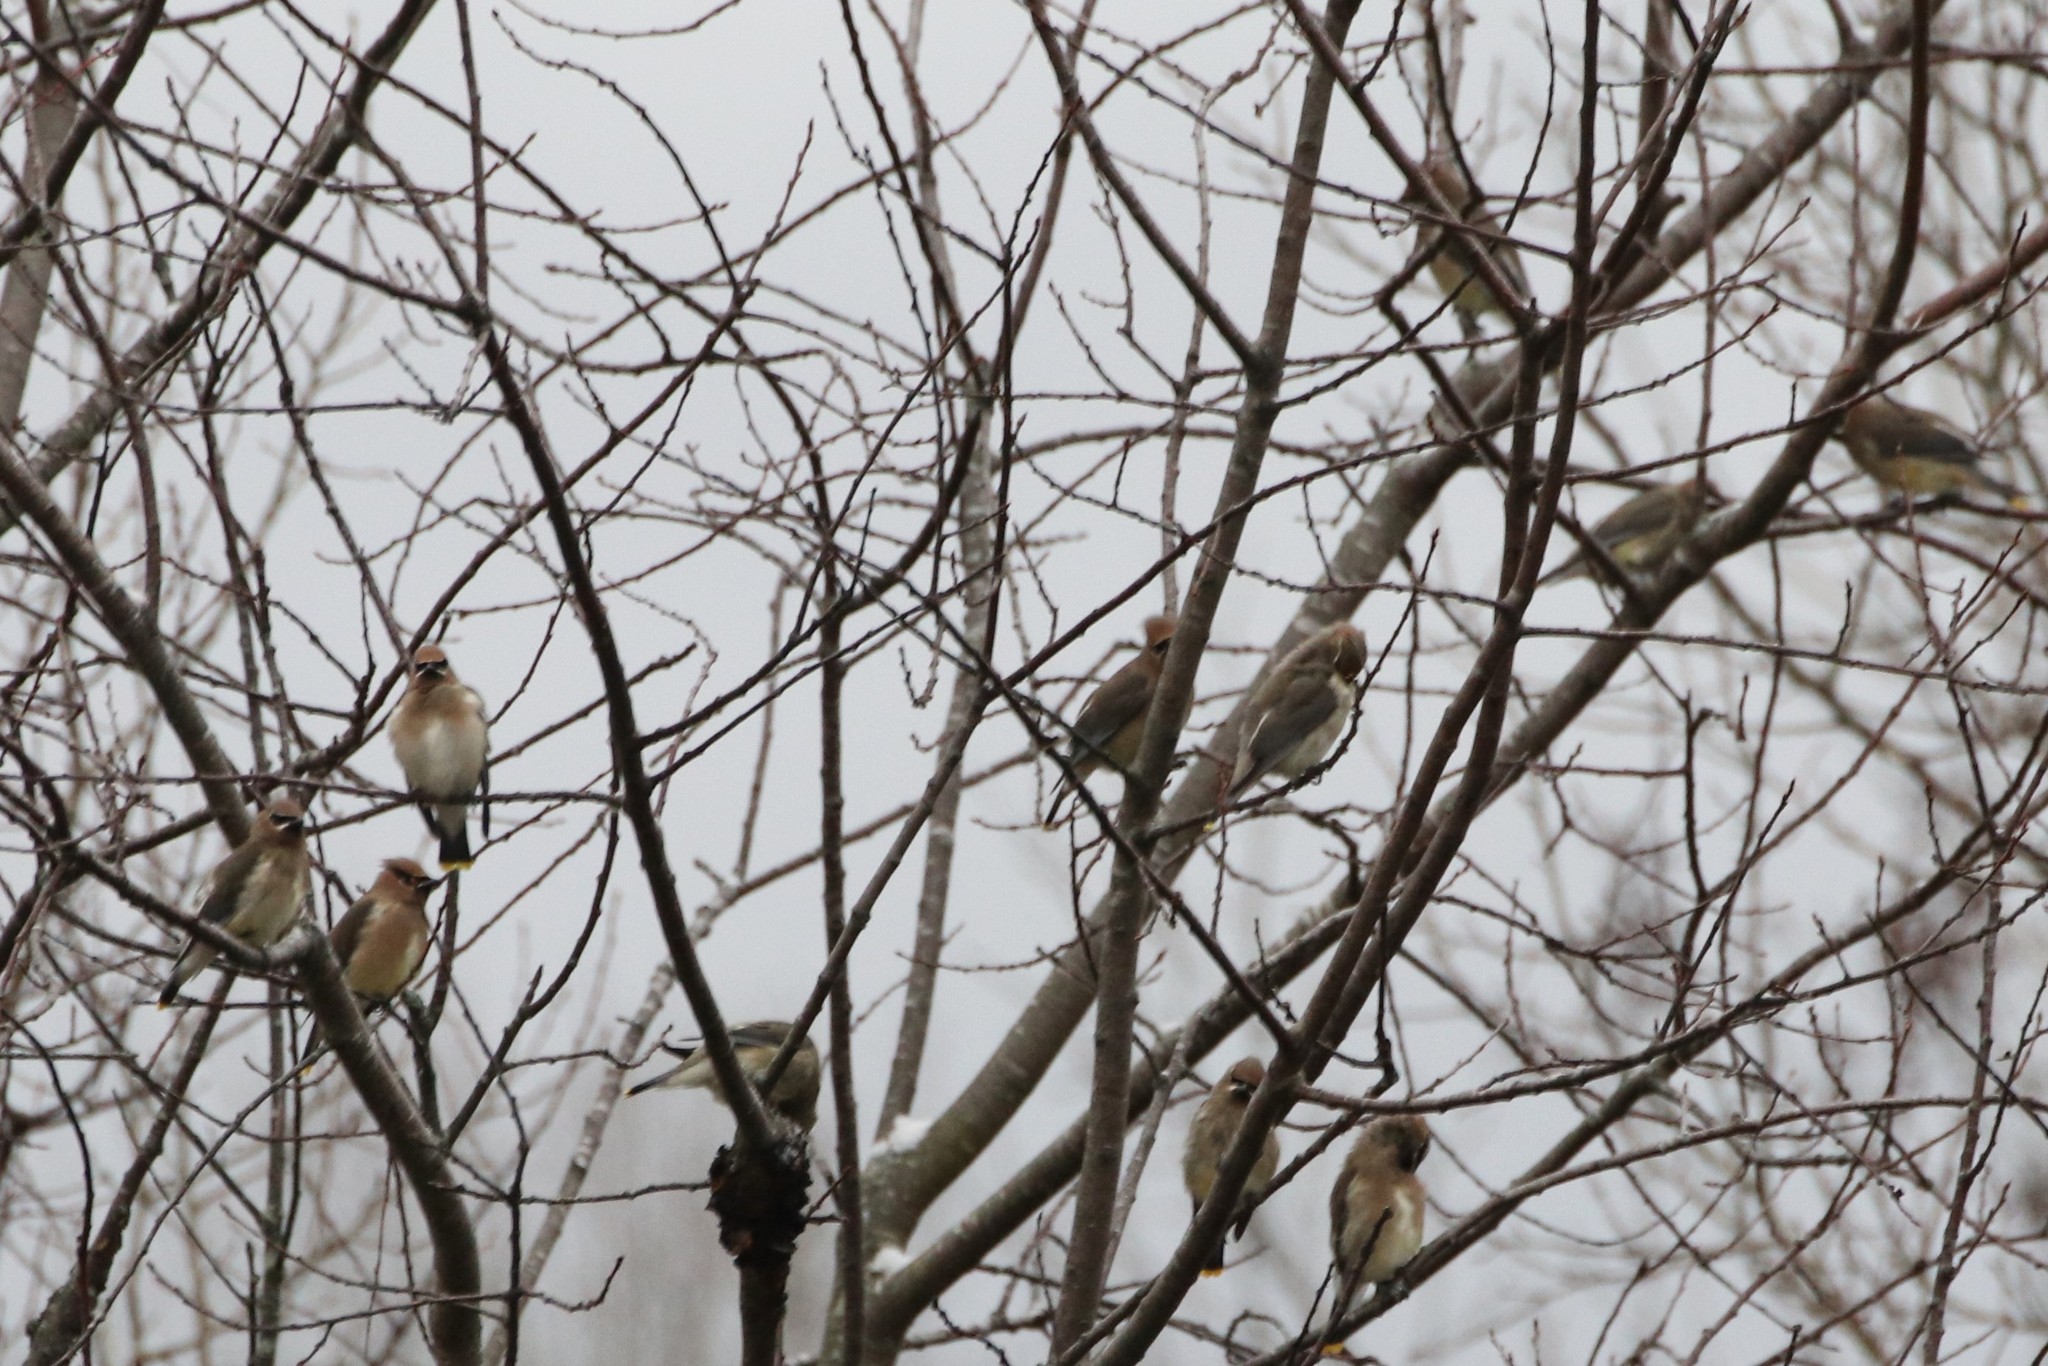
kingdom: Animalia
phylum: Chordata
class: Aves
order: Passeriformes
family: Bombycillidae
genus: Bombycilla
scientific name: Bombycilla cedrorum
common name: Cedar waxwing
